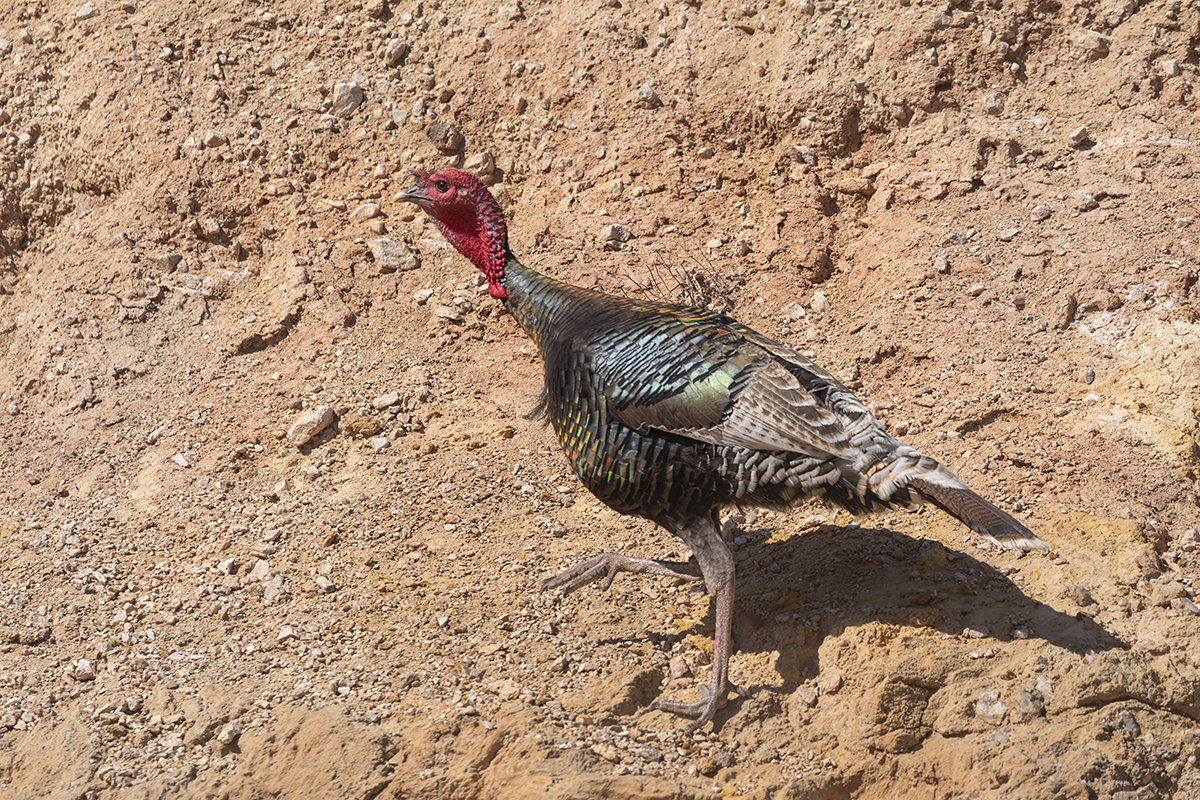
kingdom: Animalia
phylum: Chordata
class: Aves
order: Galliformes
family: Phasianidae
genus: Meleagris
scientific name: Meleagris gallopavo
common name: Wild turkey
